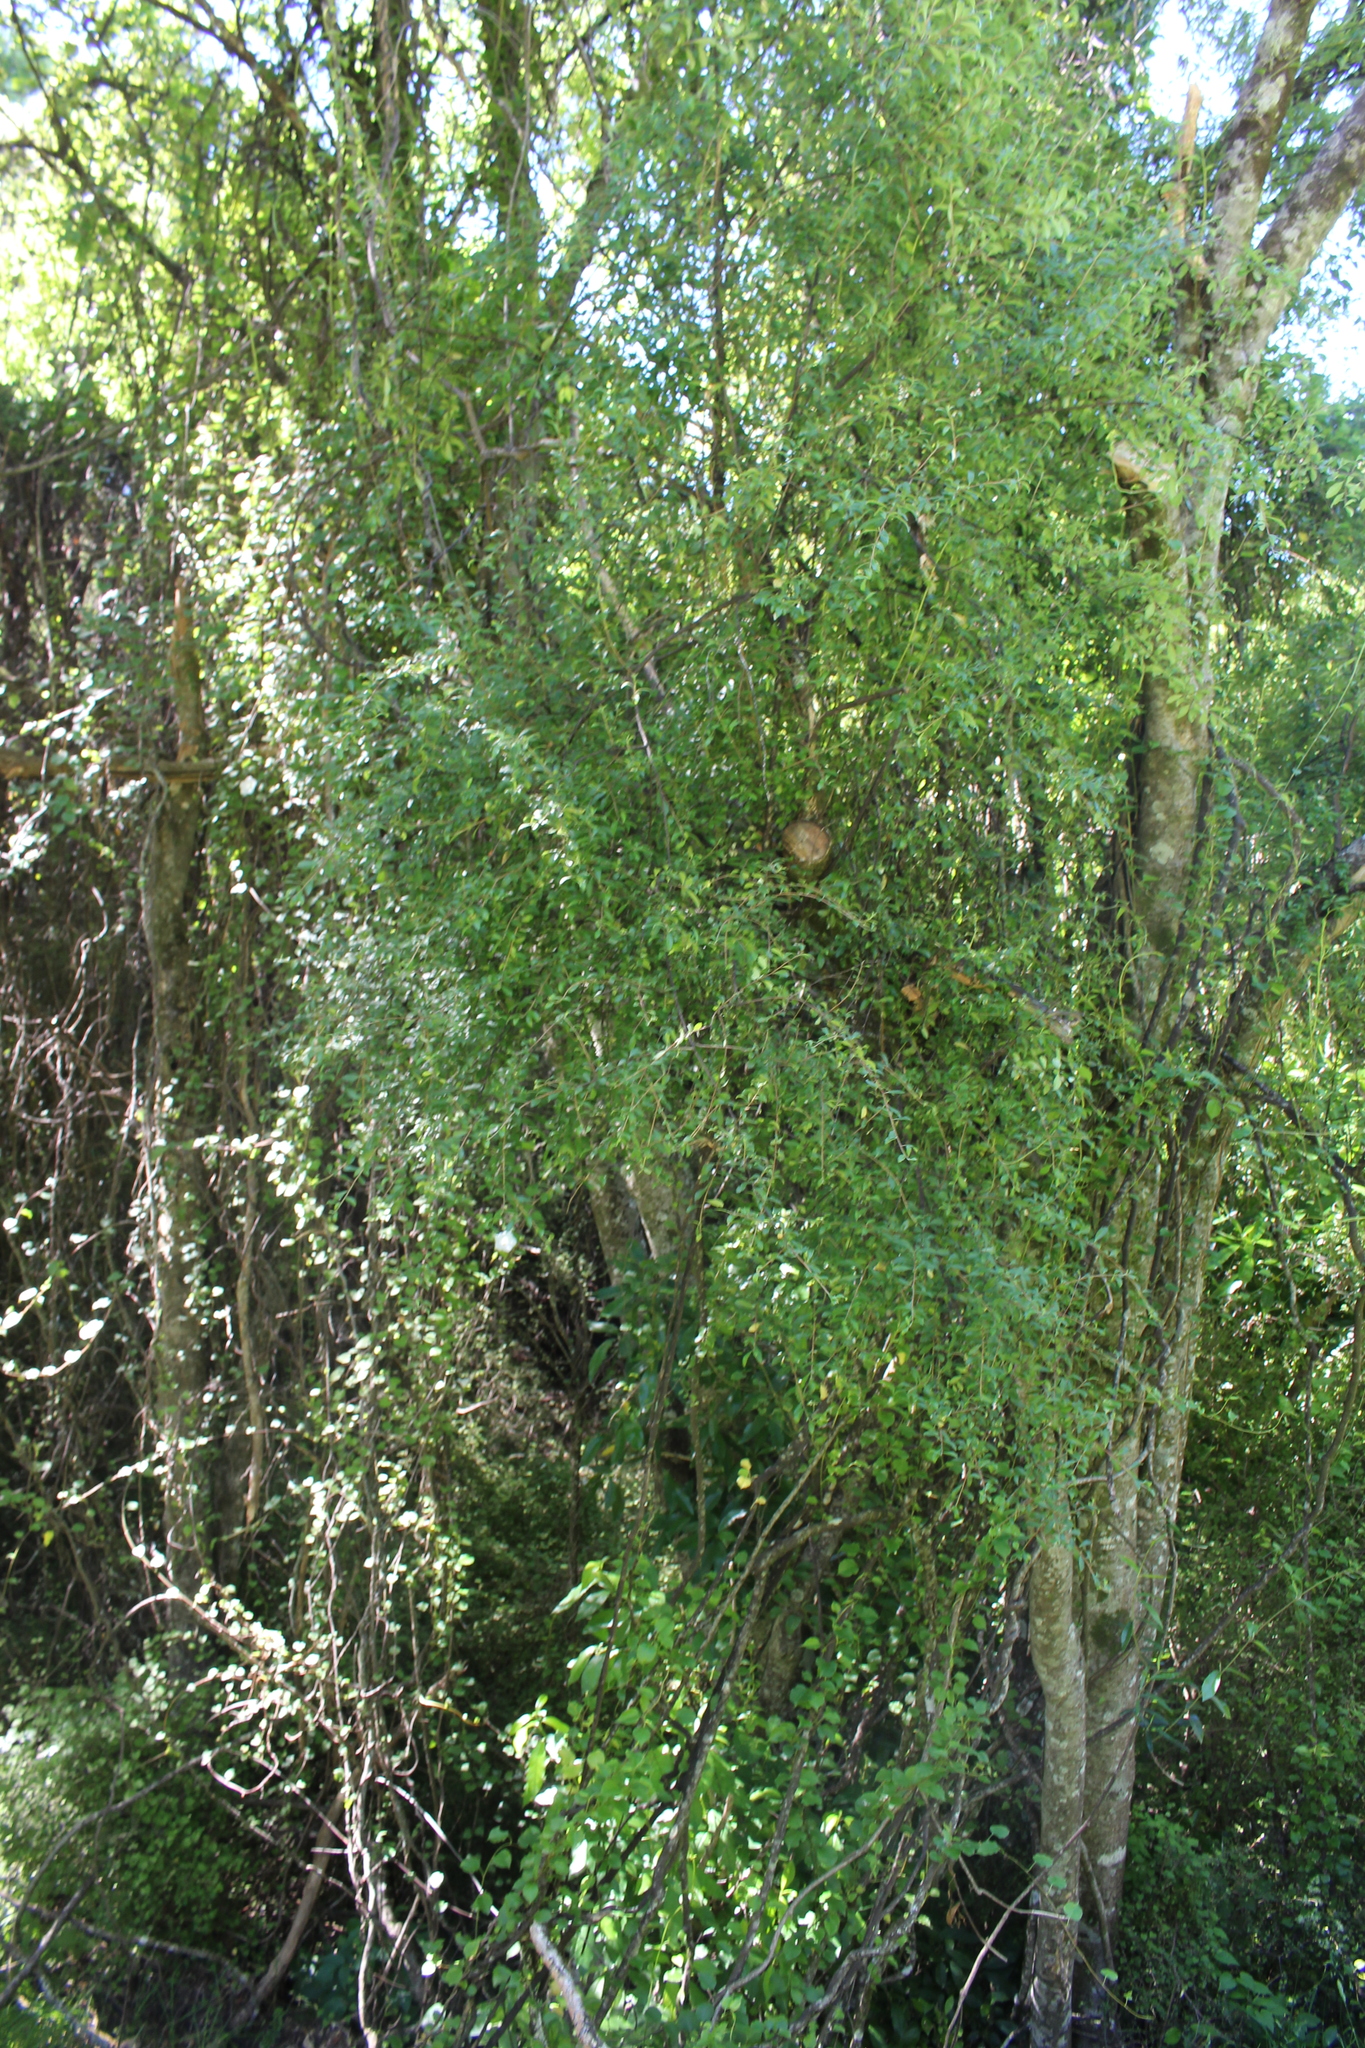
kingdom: Plantae
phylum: Tracheophyta
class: Magnoliopsida
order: Malvales
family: Malvaceae
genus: Hoheria
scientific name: Hoheria angustifolia
